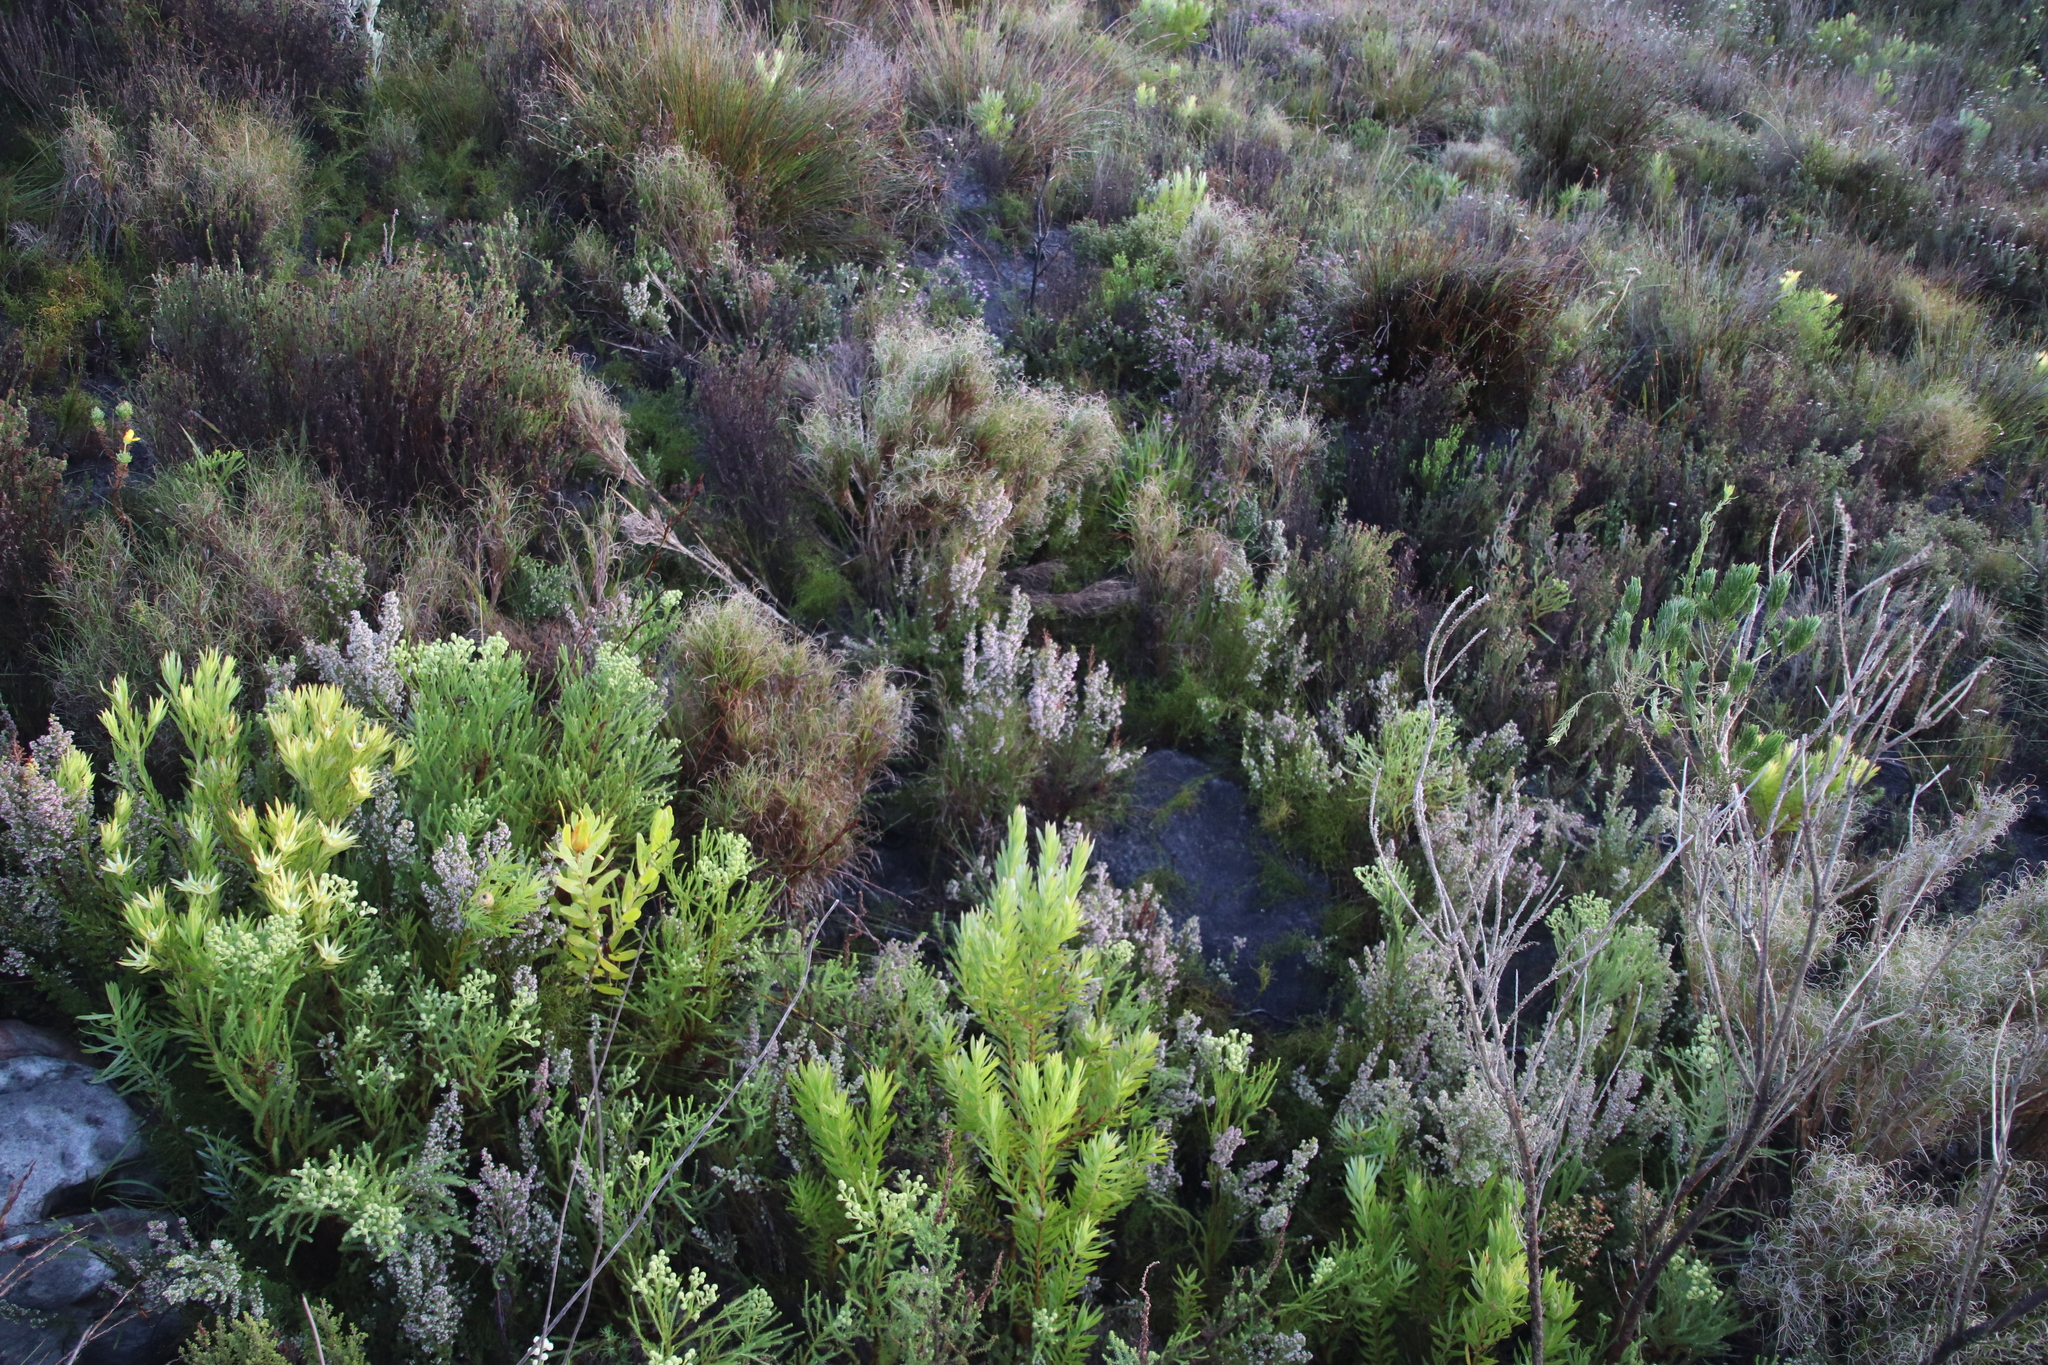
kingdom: Plantae
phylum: Tracheophyta
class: Magnoliopsida
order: Ericales
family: Ericaceae
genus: Erica
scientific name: Erica hispidula
